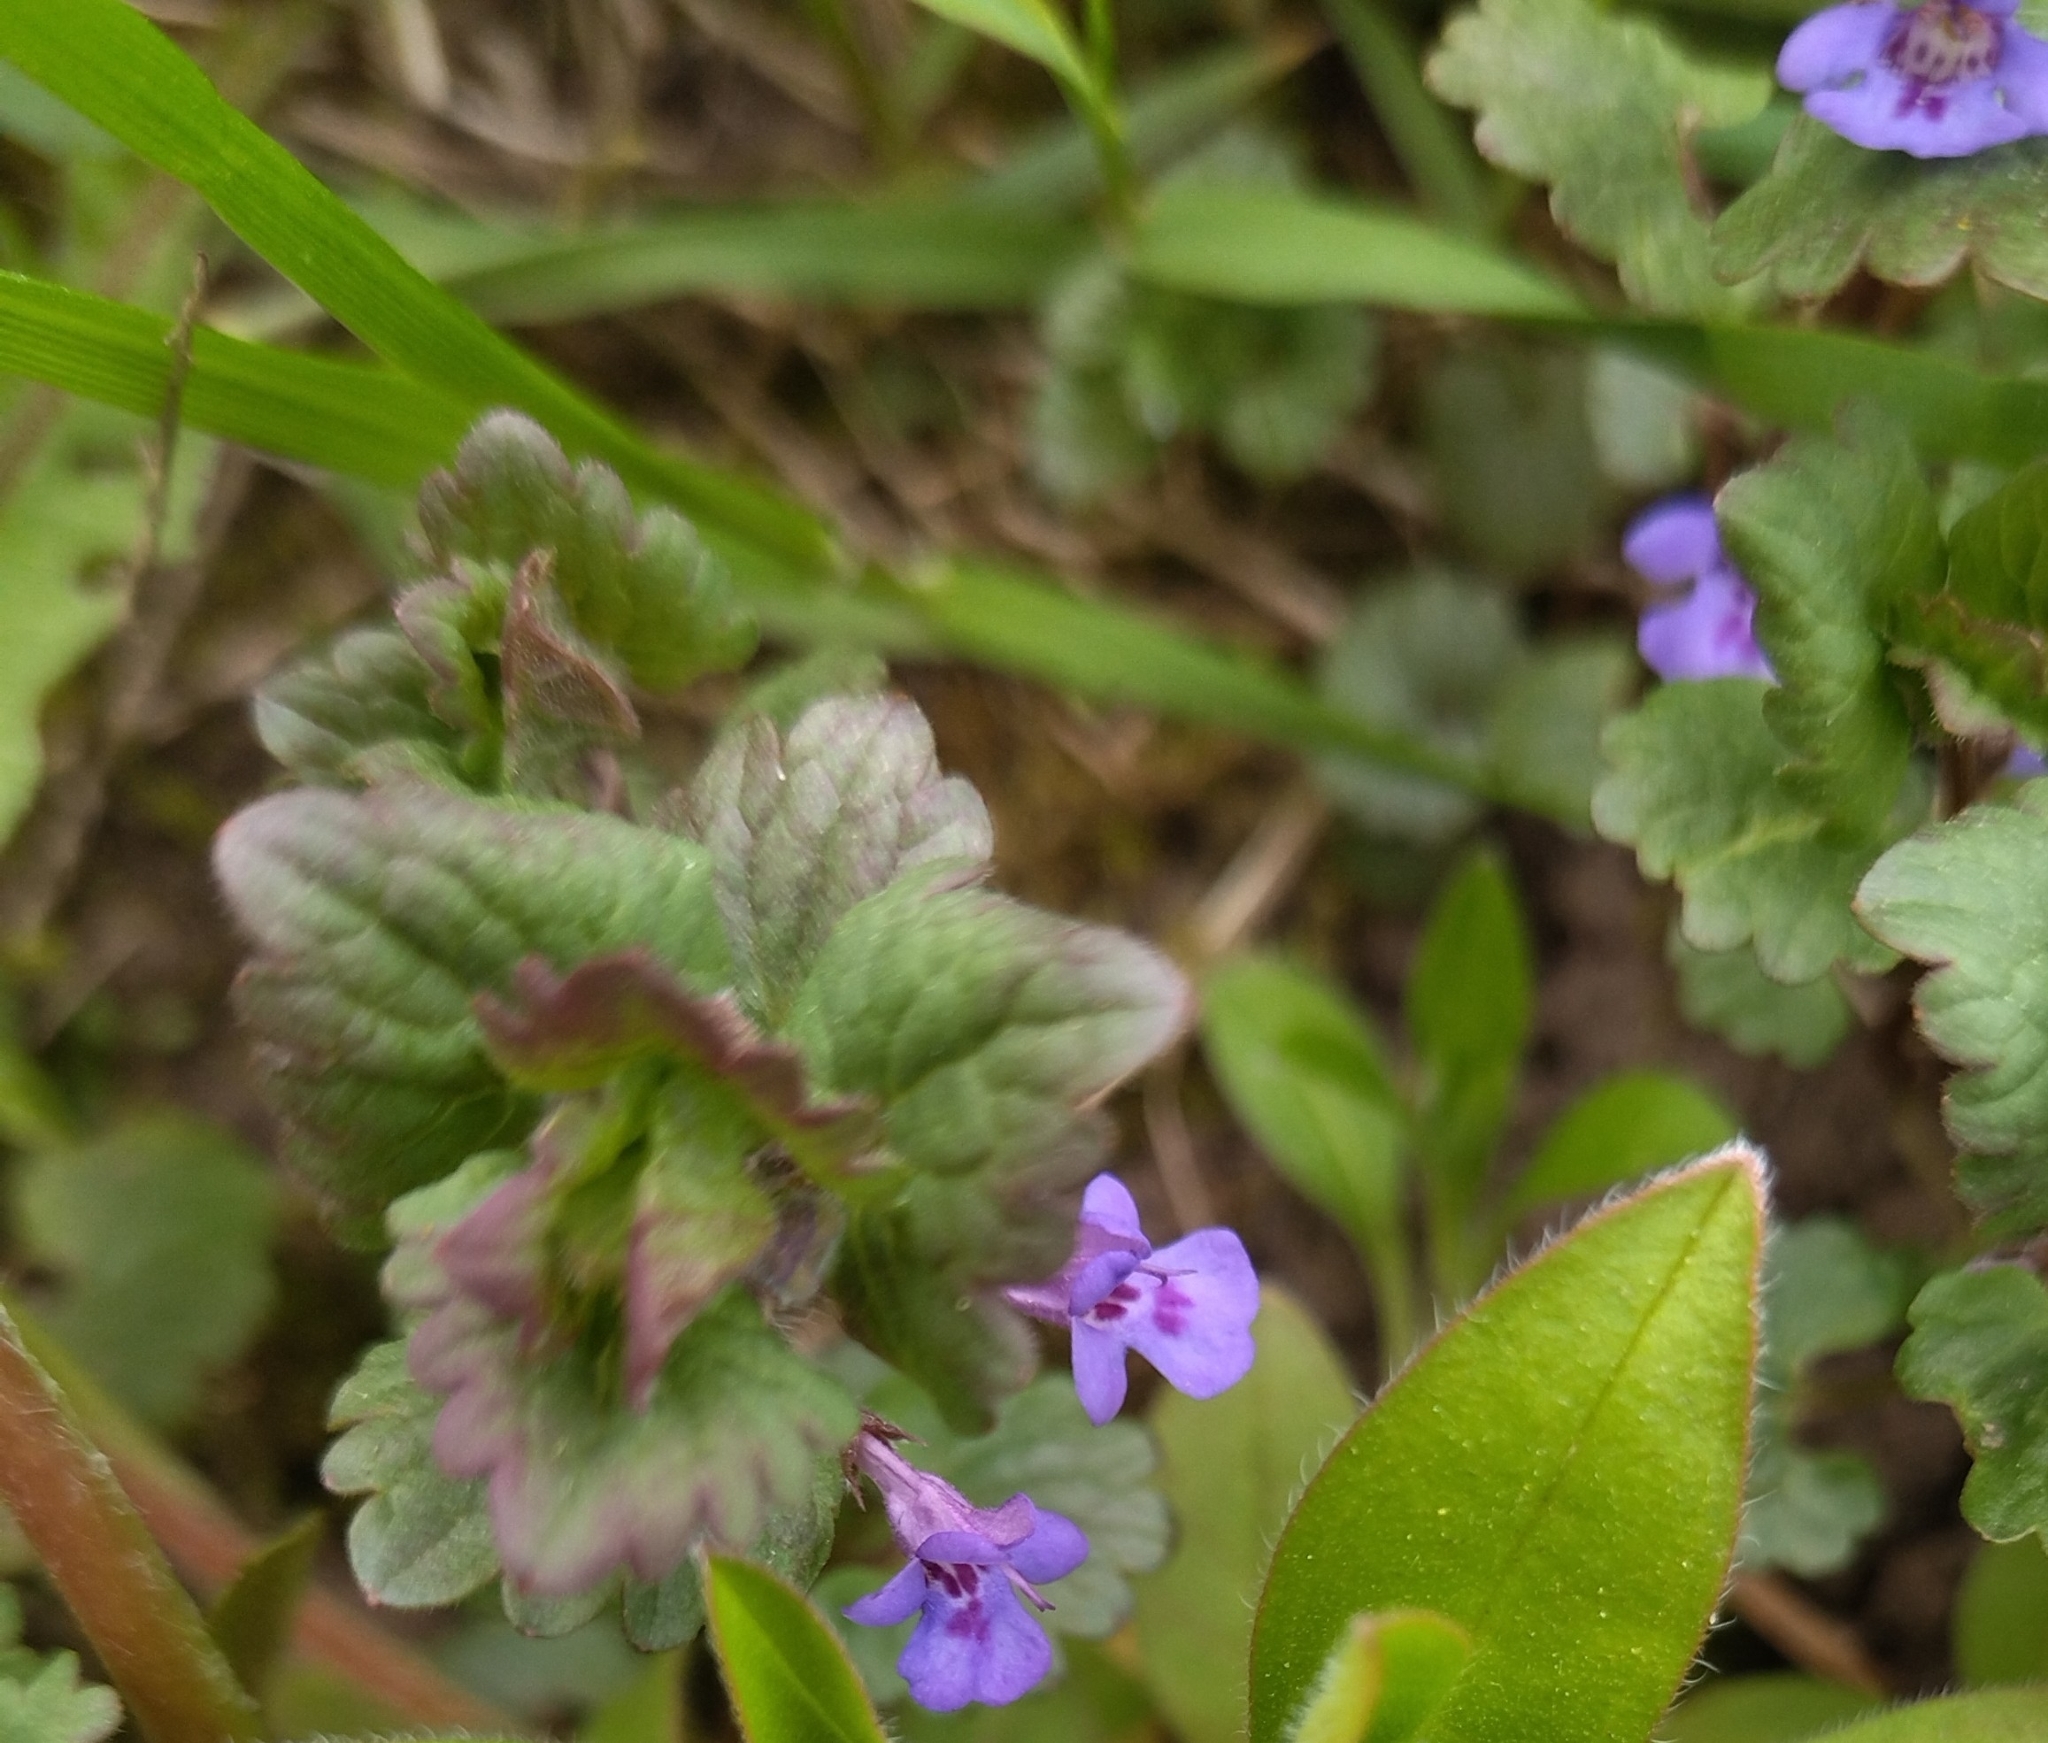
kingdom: Plantae
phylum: Tracheophyta
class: Magnoliopsida
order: Lamiales
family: Lamiaceae
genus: Glechoma
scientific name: Glechoma hederacea
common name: Ground ivy
